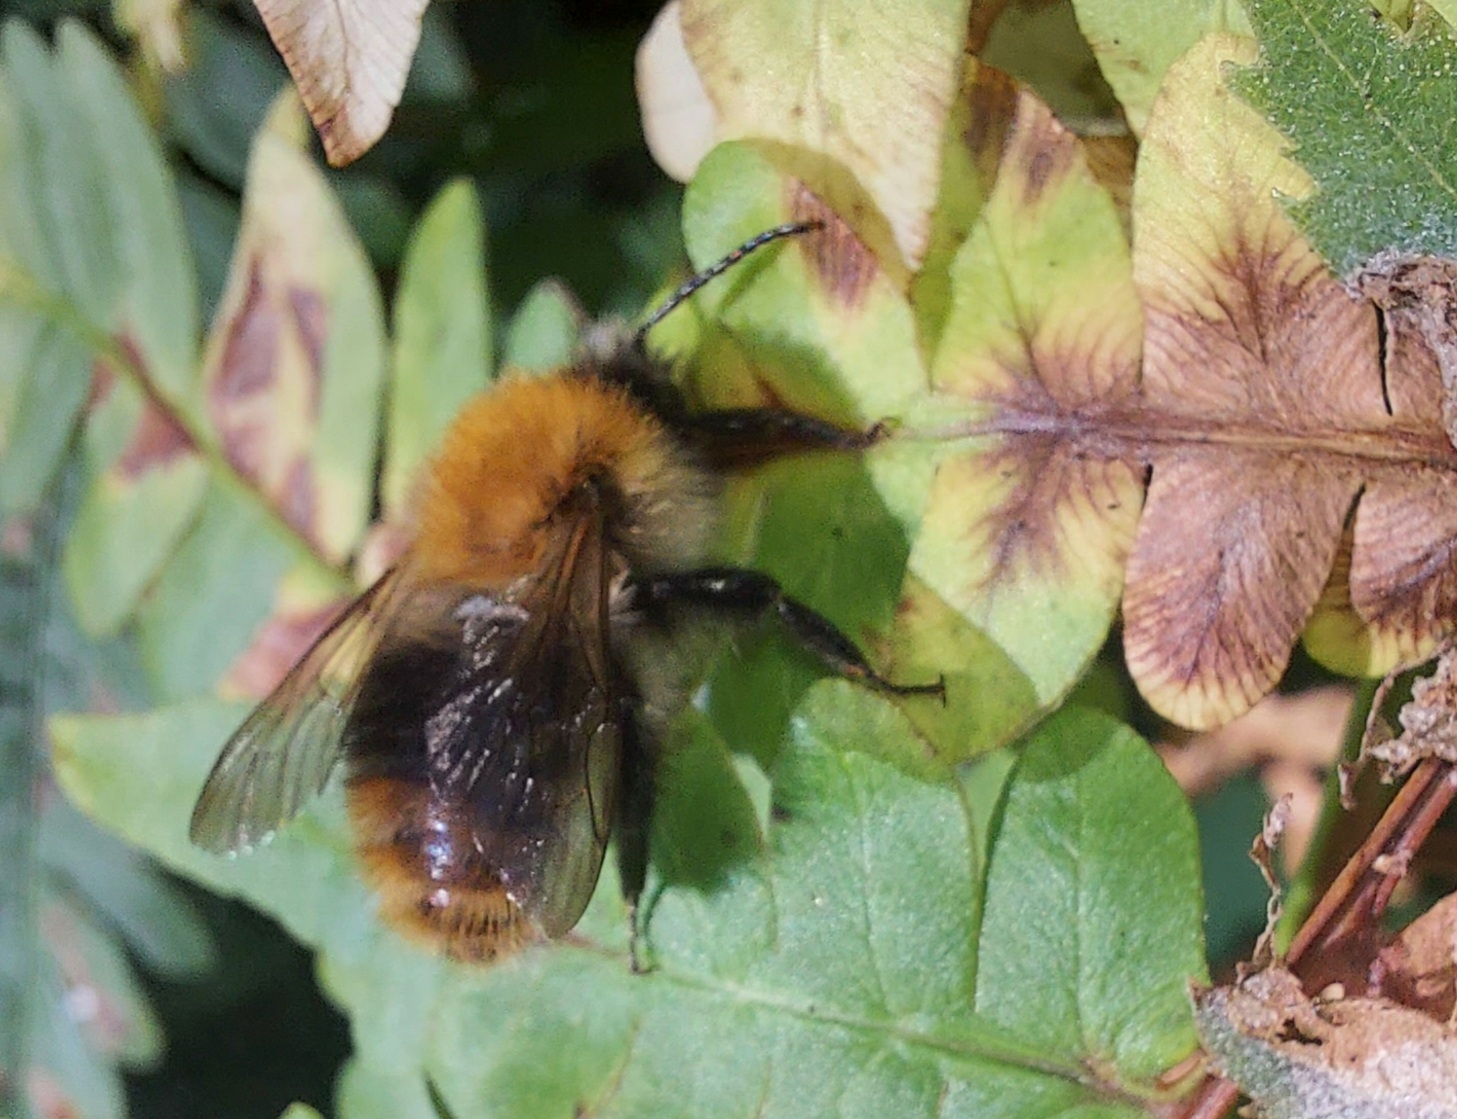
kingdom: Animalia
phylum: Arthropoda
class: Insecta
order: Hymenoptera
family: Apidae
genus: Bombus
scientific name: Bombus pascuorum
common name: Common carder bee
